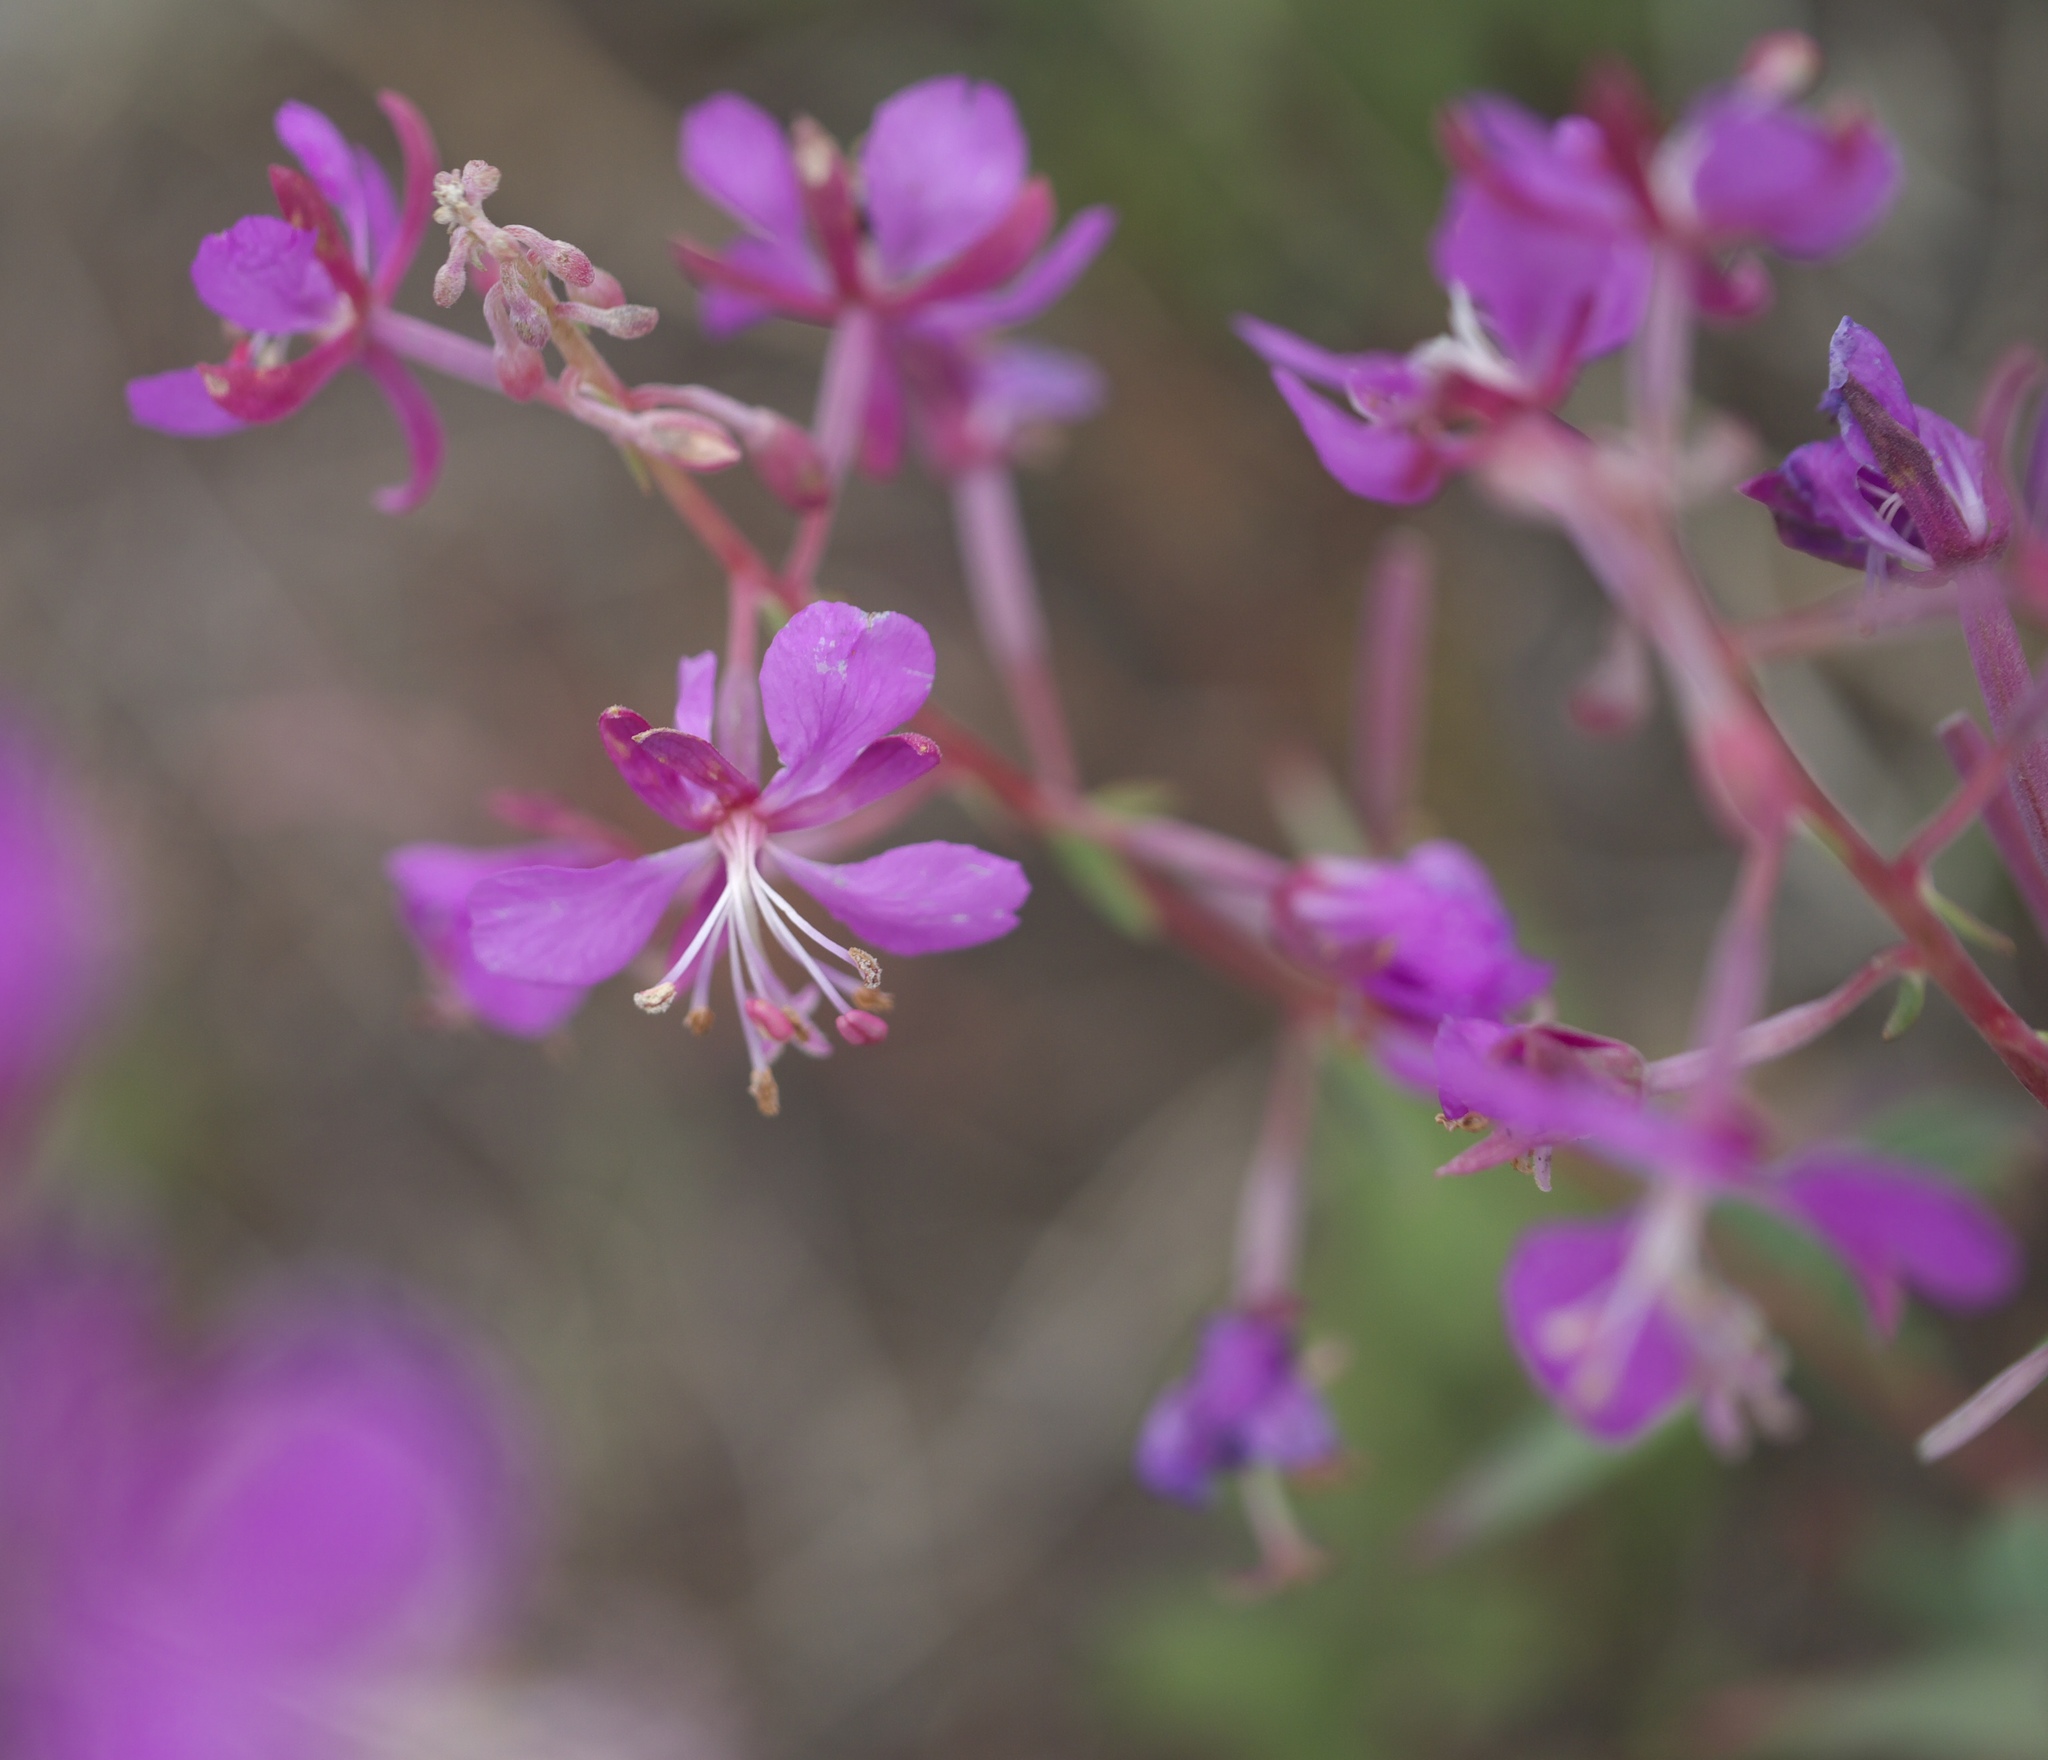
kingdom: Plantae
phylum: Tracheophyta
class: Magnoliopsida
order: Myrtales
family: Onagraceae
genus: Chamaenerion
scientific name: Chamaenerion angustifolium
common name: Fireweed
